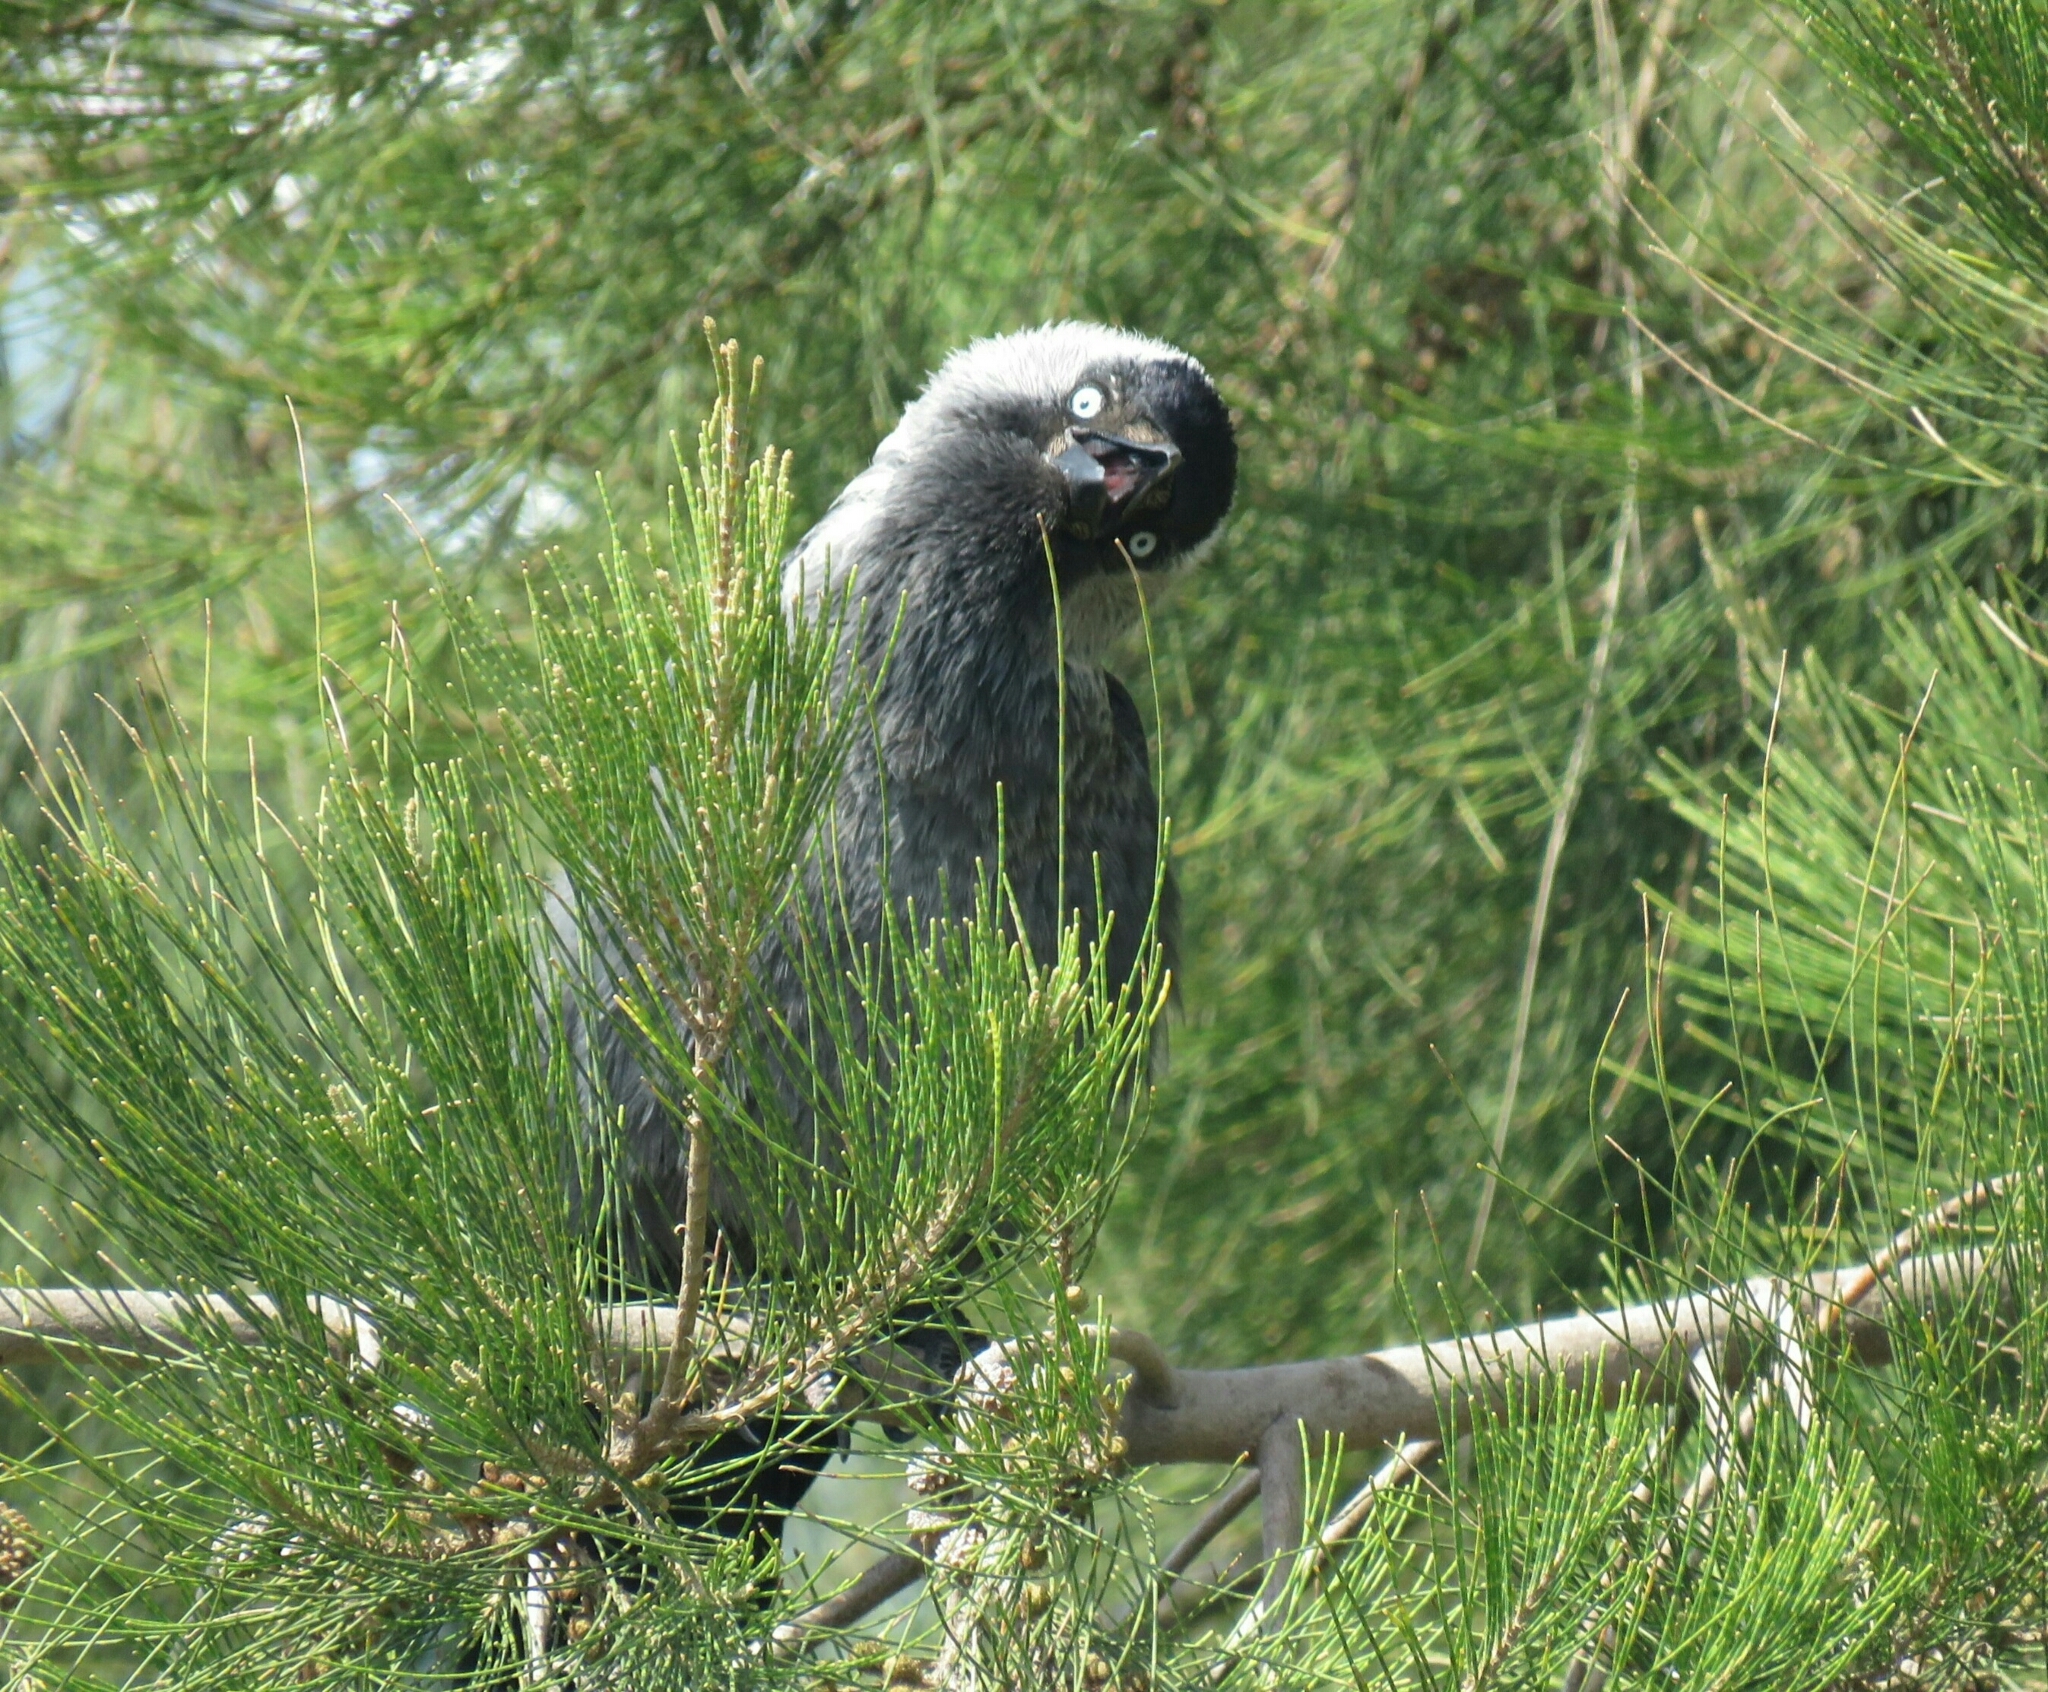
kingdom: Animalia
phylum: Chordata
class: Aves
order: Passeriformes
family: Corvidae
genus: Coloeus
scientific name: Coloeus monedula
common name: Western jackdaw
